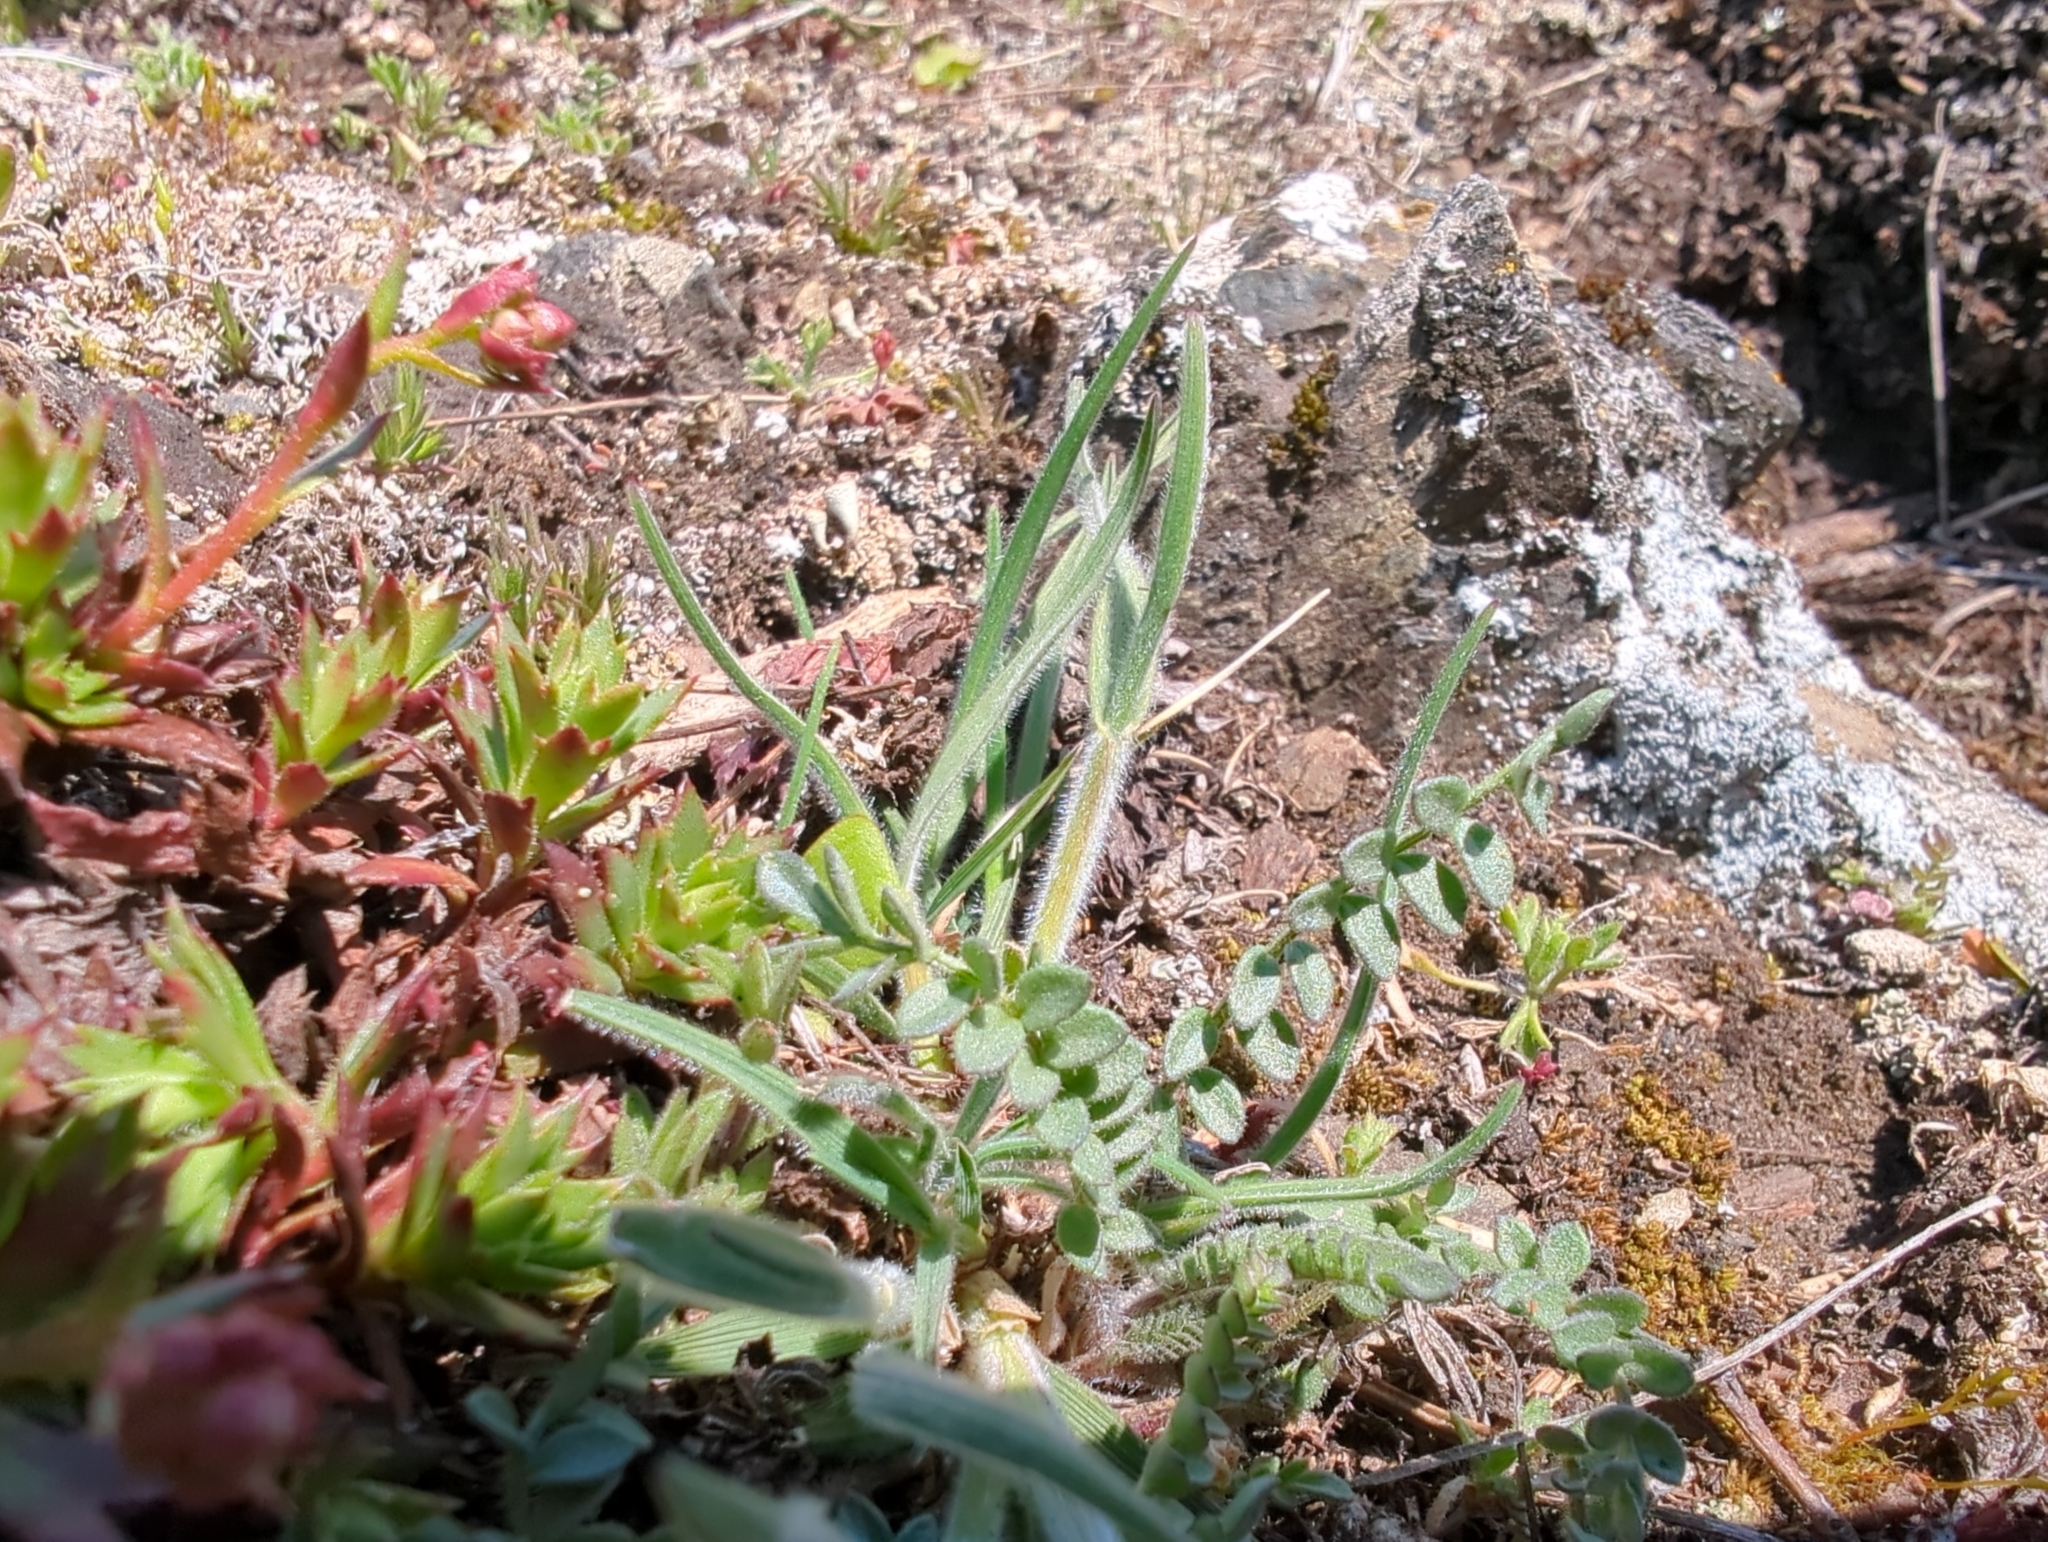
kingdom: Plantae
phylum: Tracheophyta
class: Liliopsida
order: Poales
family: Poaceae
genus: Koeleria
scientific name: Koeleria spicata
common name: Mountain trisetum
